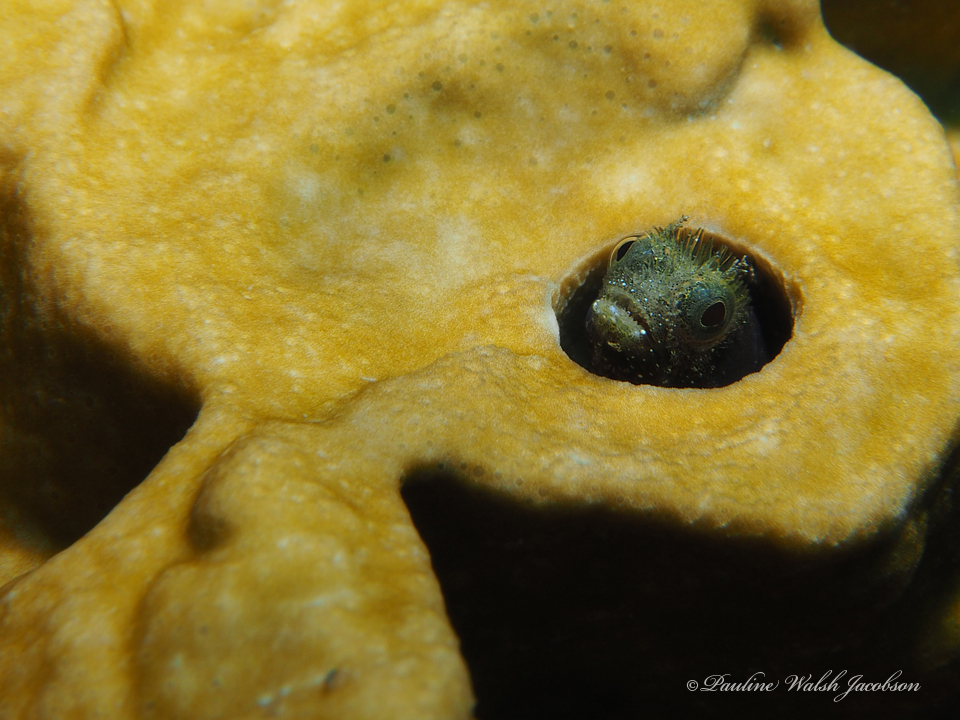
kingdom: Animalia
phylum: Chordata
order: Perciformes
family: Chaenopsidae
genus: Acanthemblemaria
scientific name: Acanthemblemaria spinosa
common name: Spinyhead blenny
